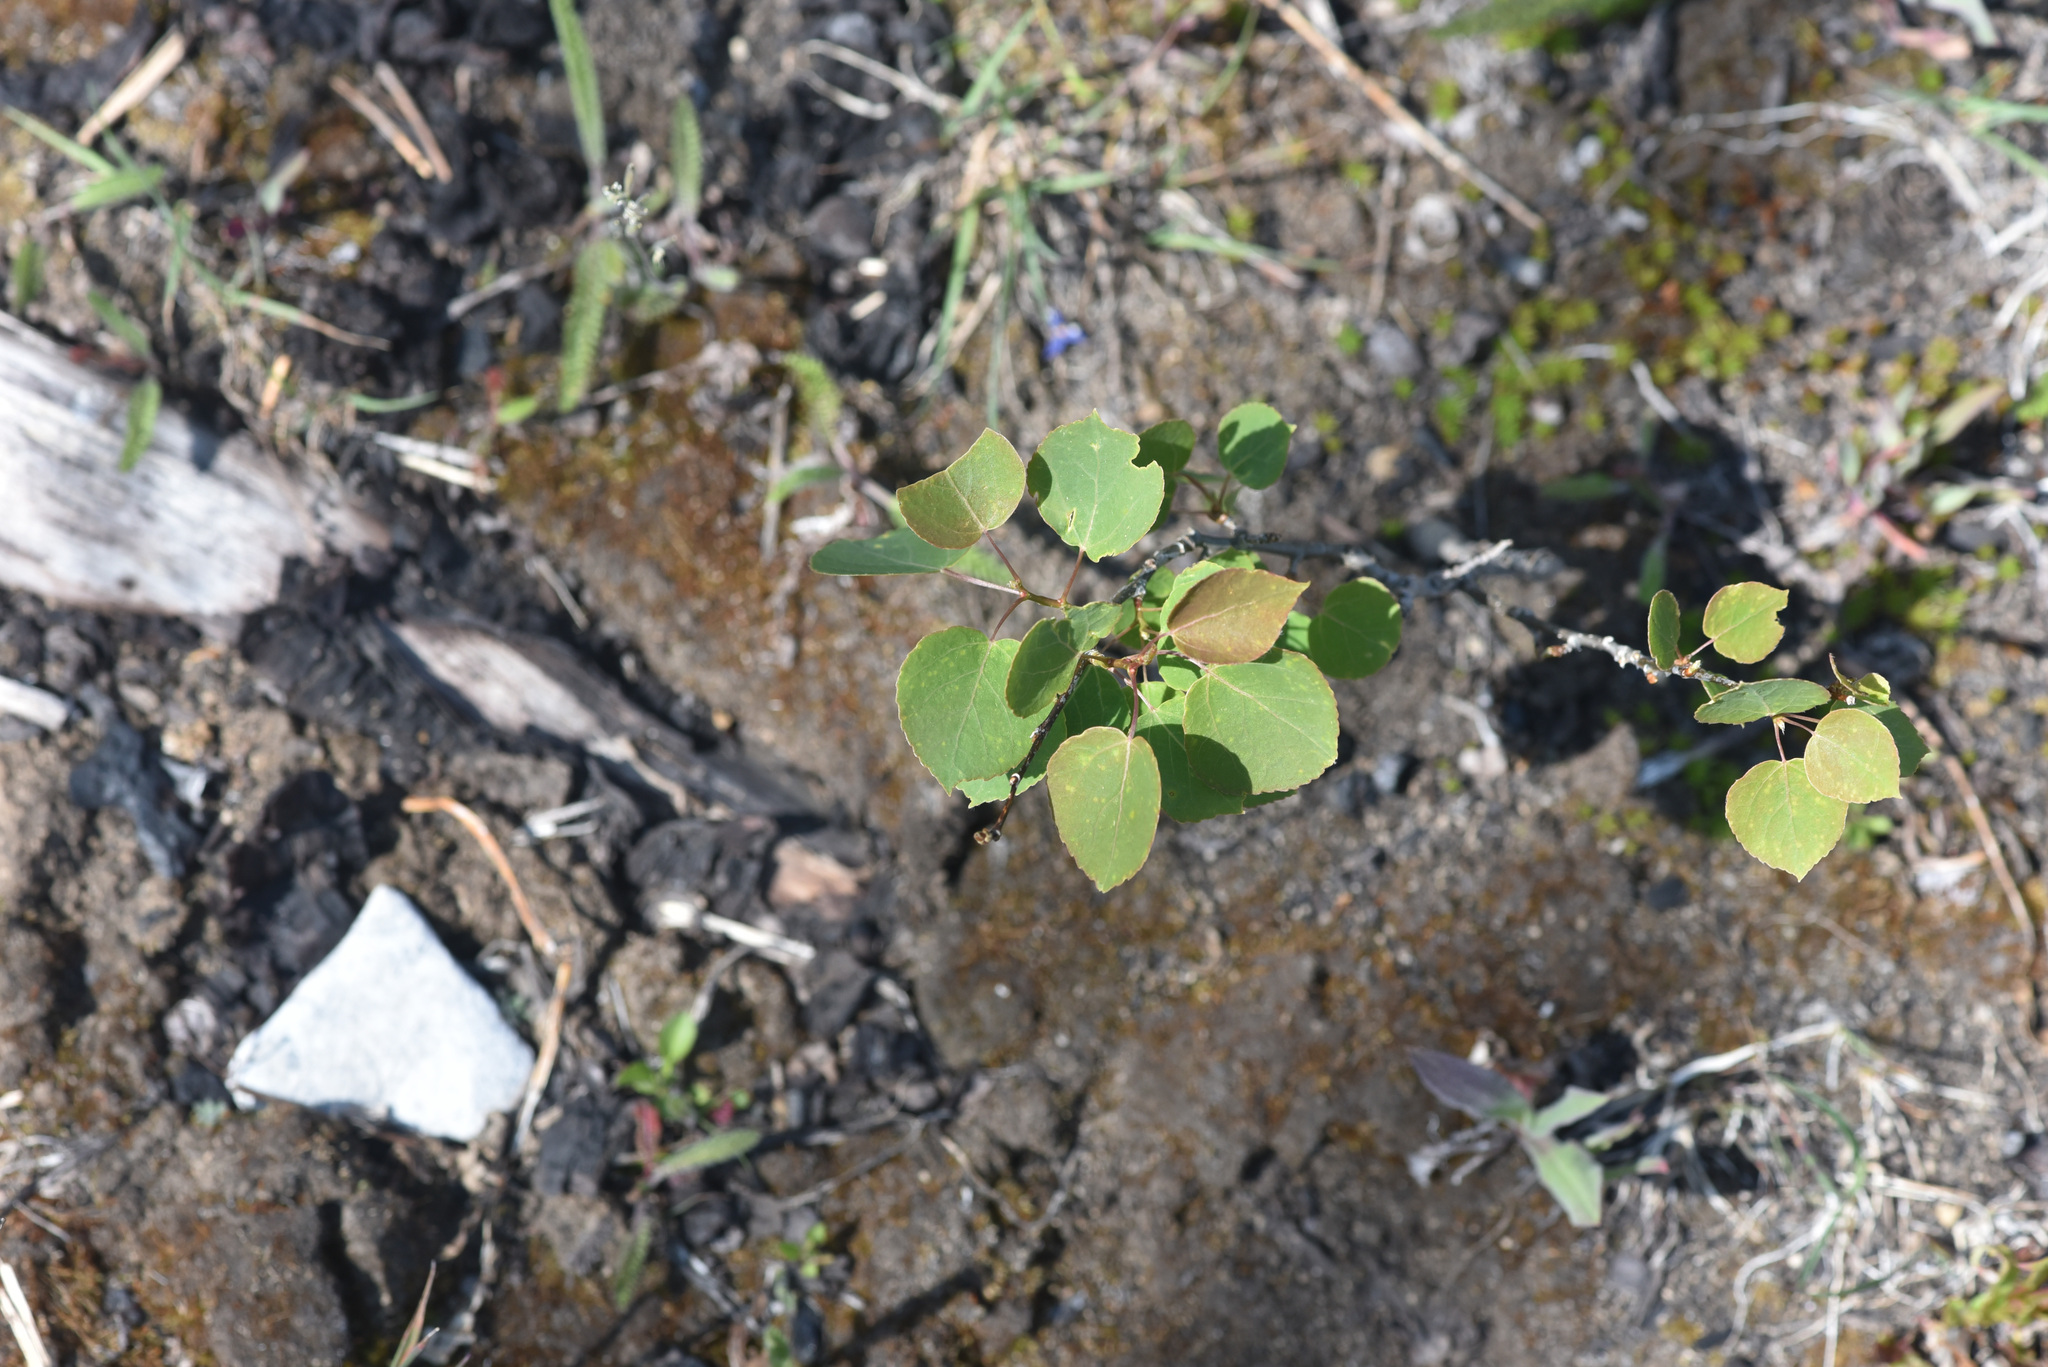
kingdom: Plantae
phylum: Tracheophyta
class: Magnoliopsida
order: Malpighiales
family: Salicaceae
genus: Populus
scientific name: Populus tremuloides
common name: Quaking aspen
